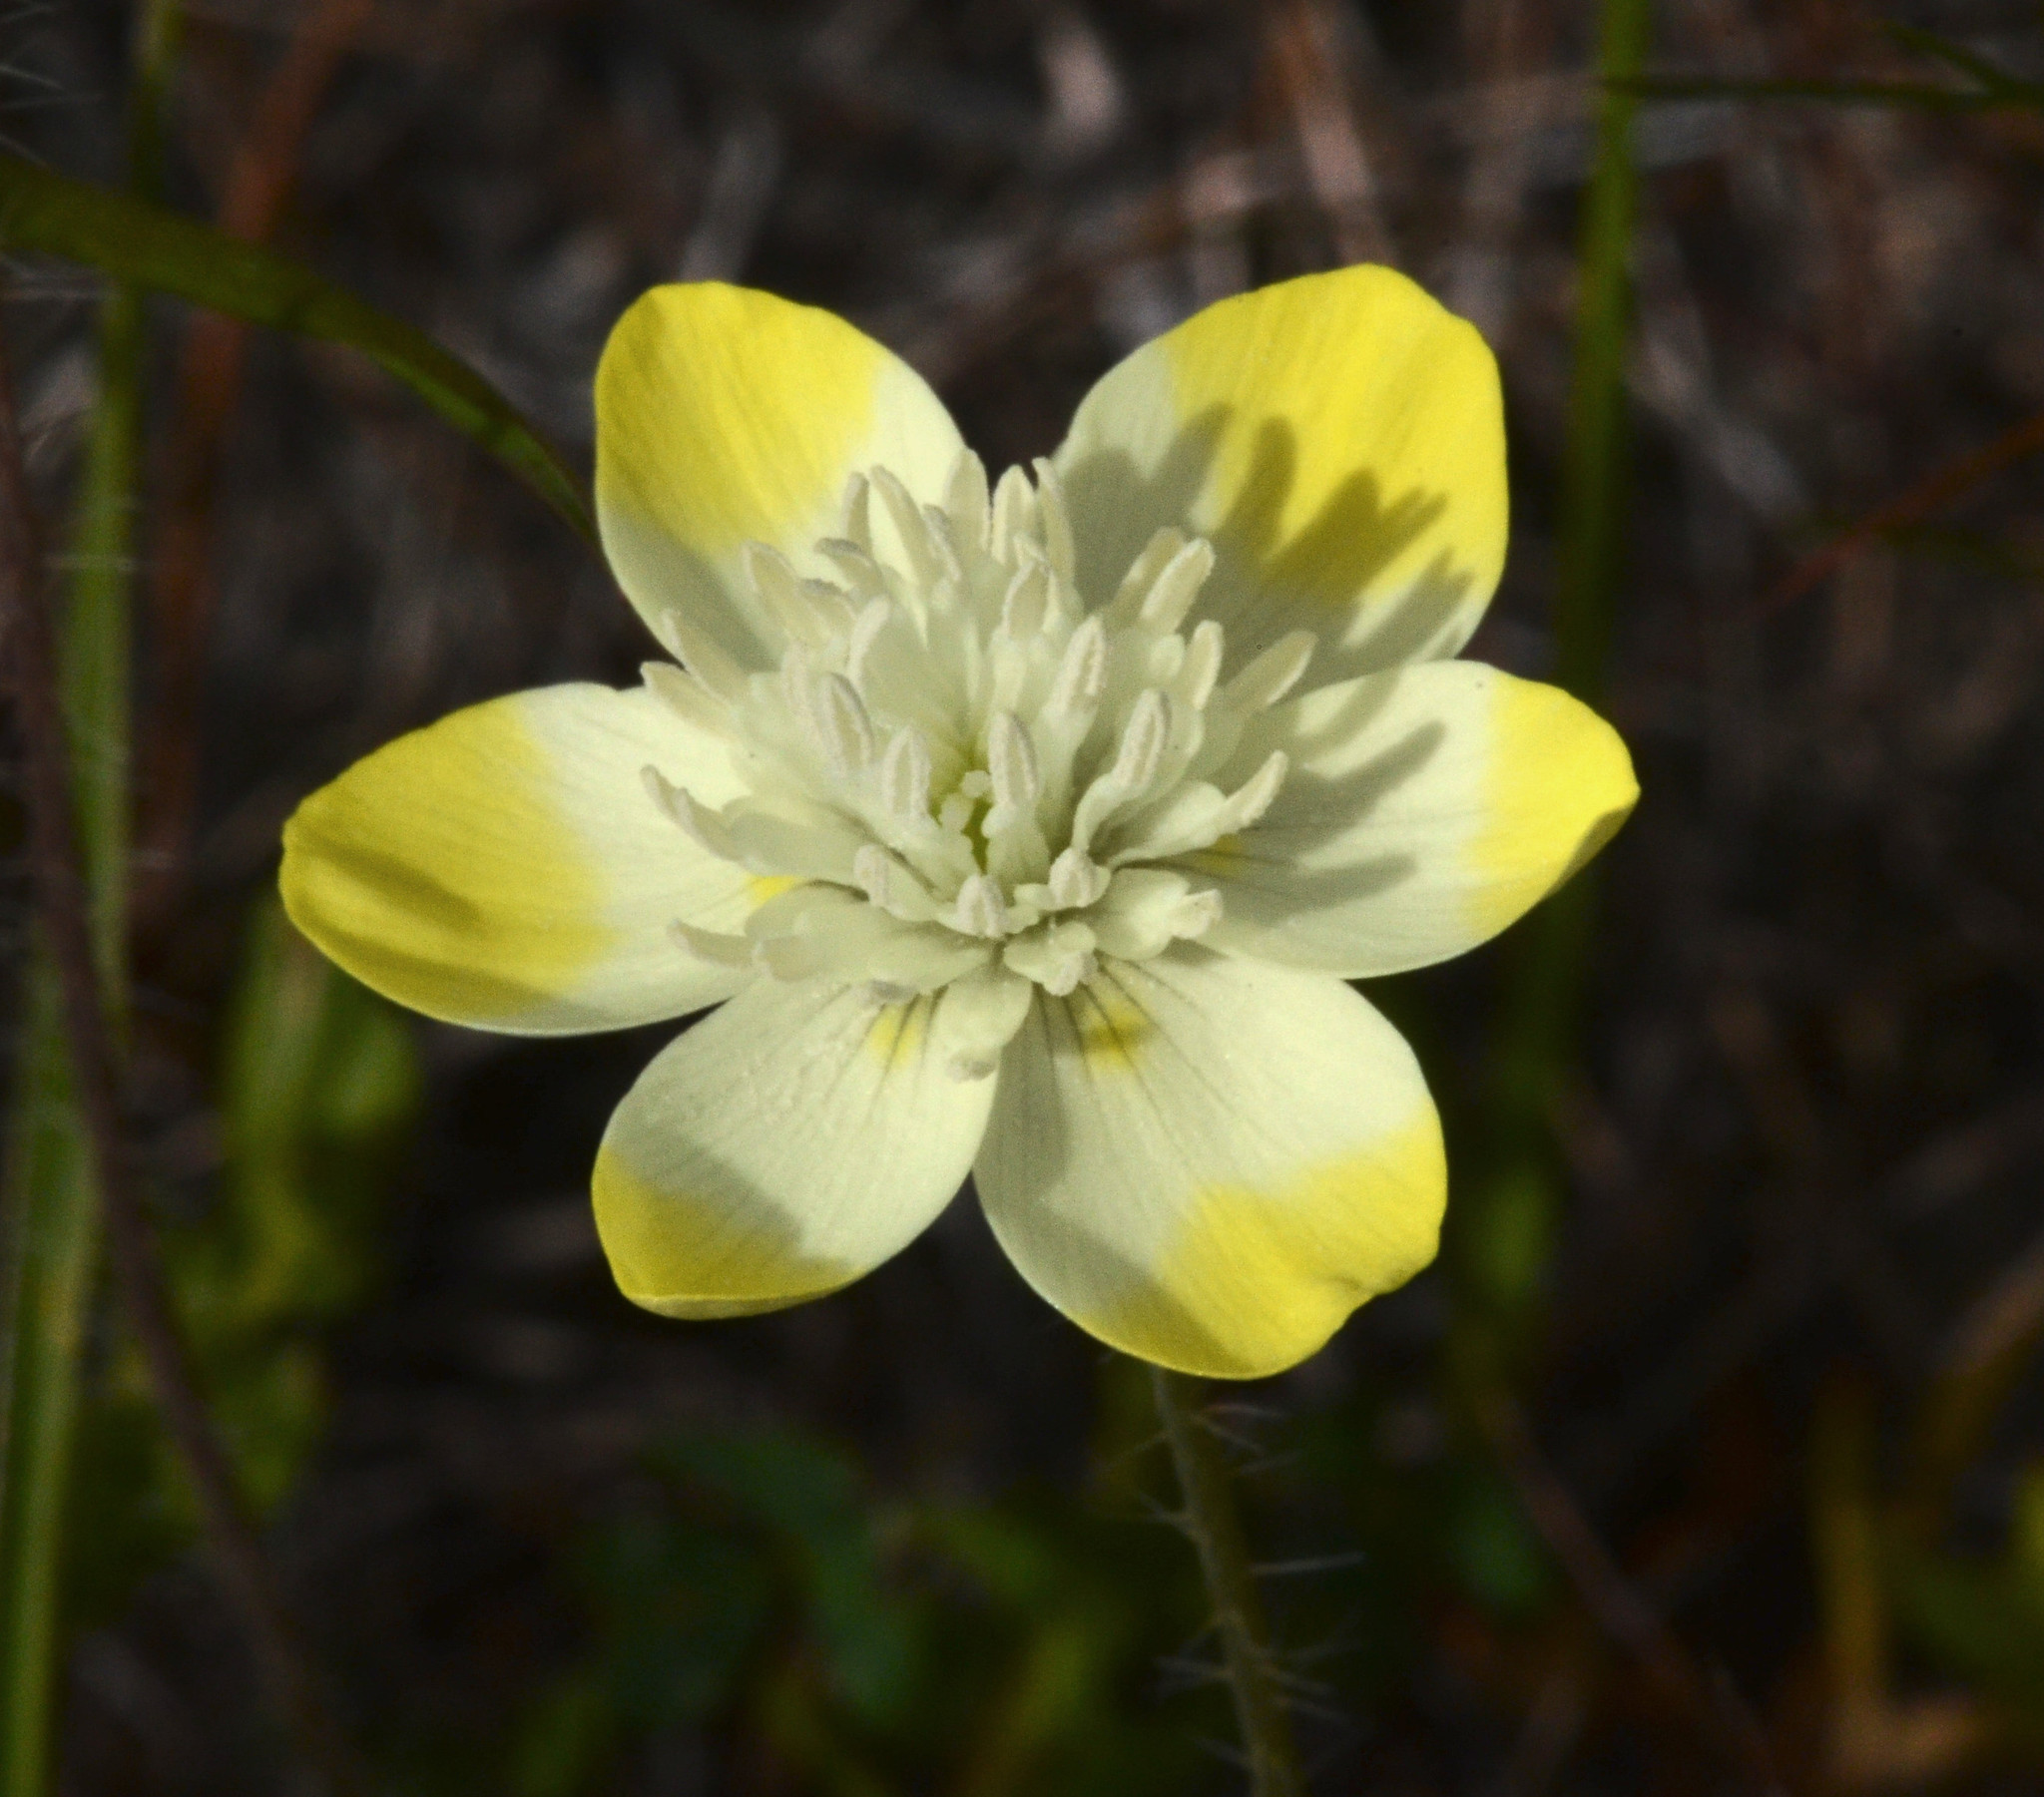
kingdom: Plantae
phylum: Tracheophyta
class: Magnoliopsida
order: Ranunculales
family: Papaveraceae
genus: Platystemon
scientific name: Platystemon californicus
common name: Cream-cups
